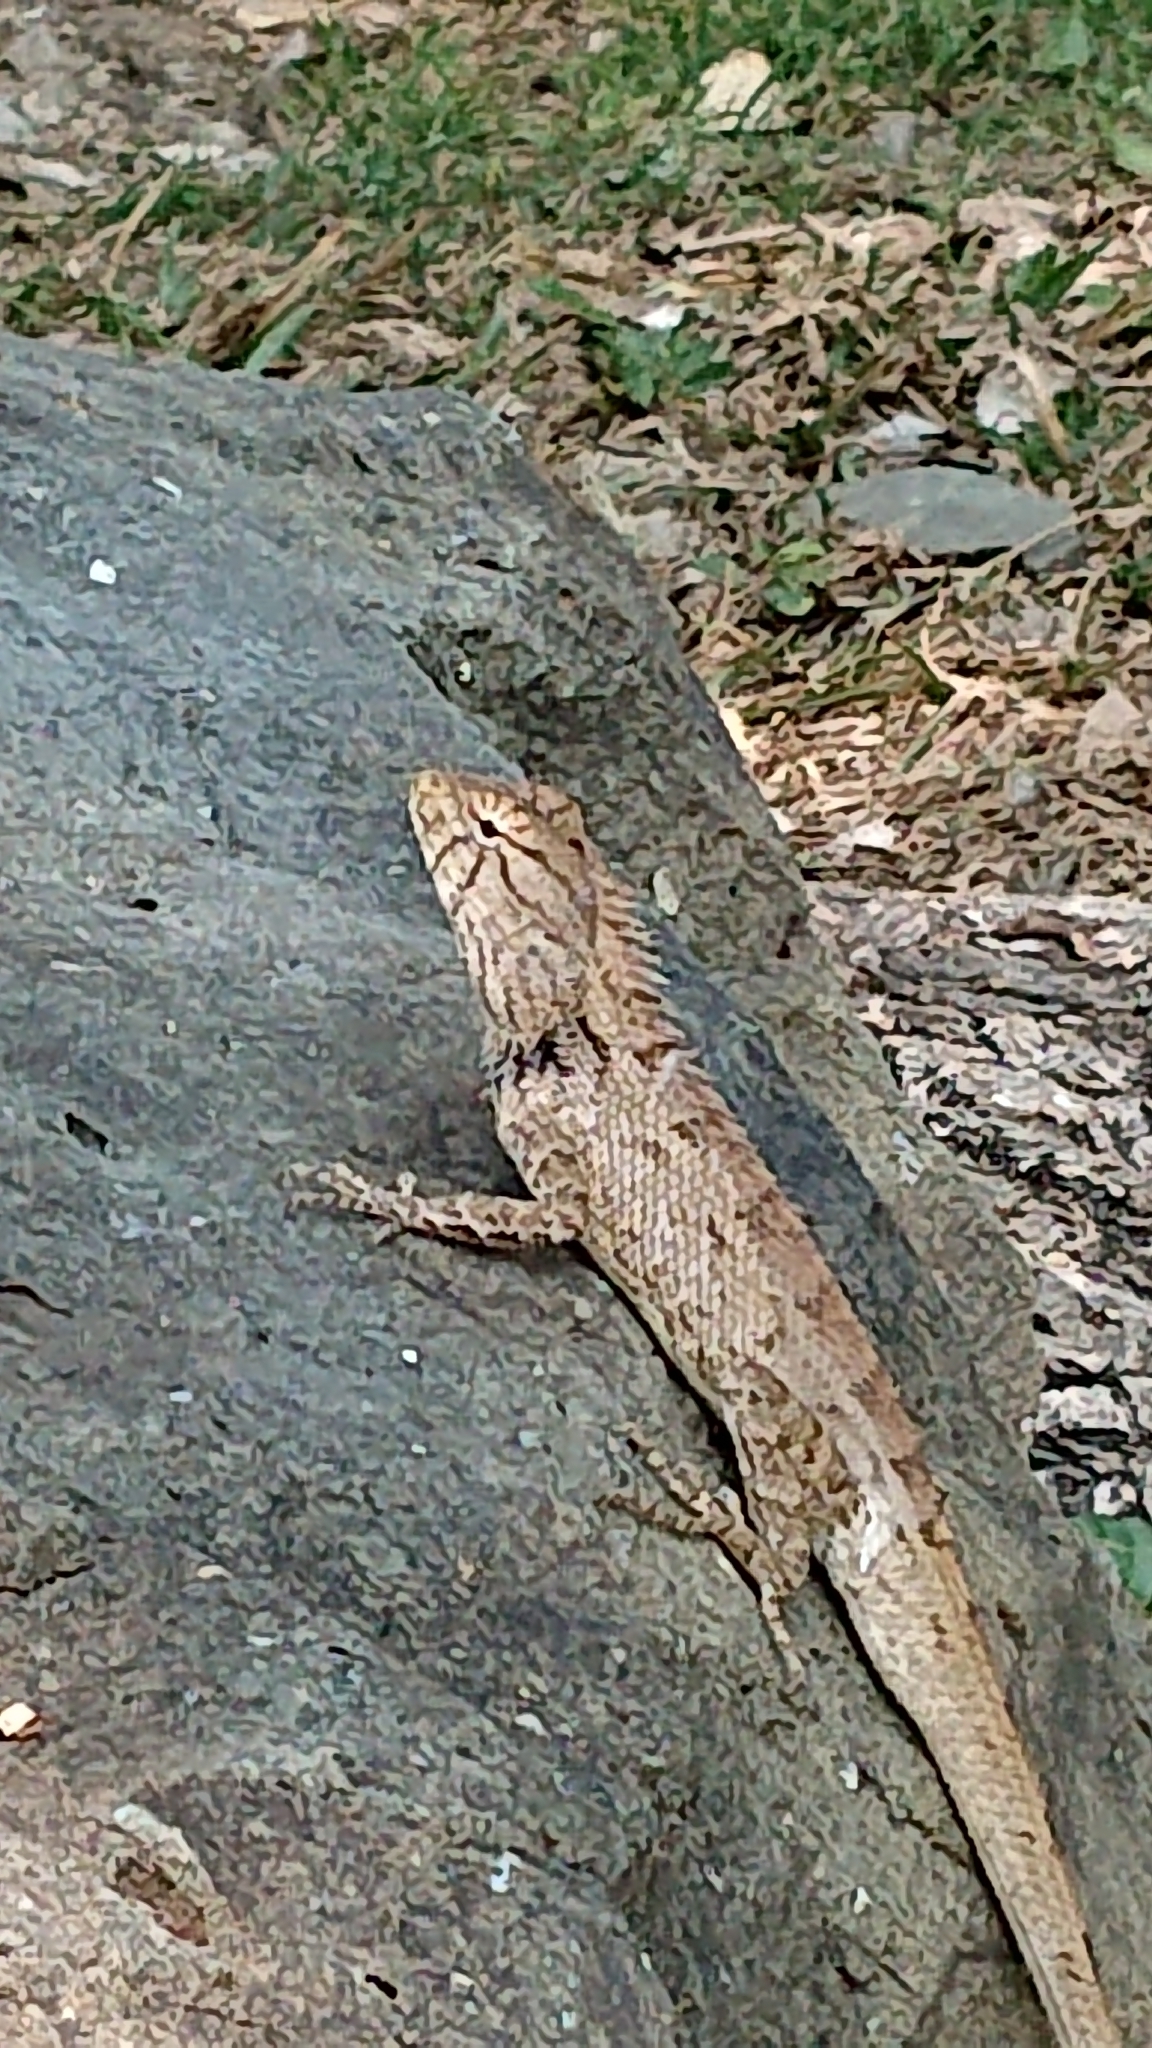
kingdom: Animalia
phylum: Chordata
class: Squamata
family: Agamidae
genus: Calotes
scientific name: Calotes versicolor
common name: Oriental garden lizard
